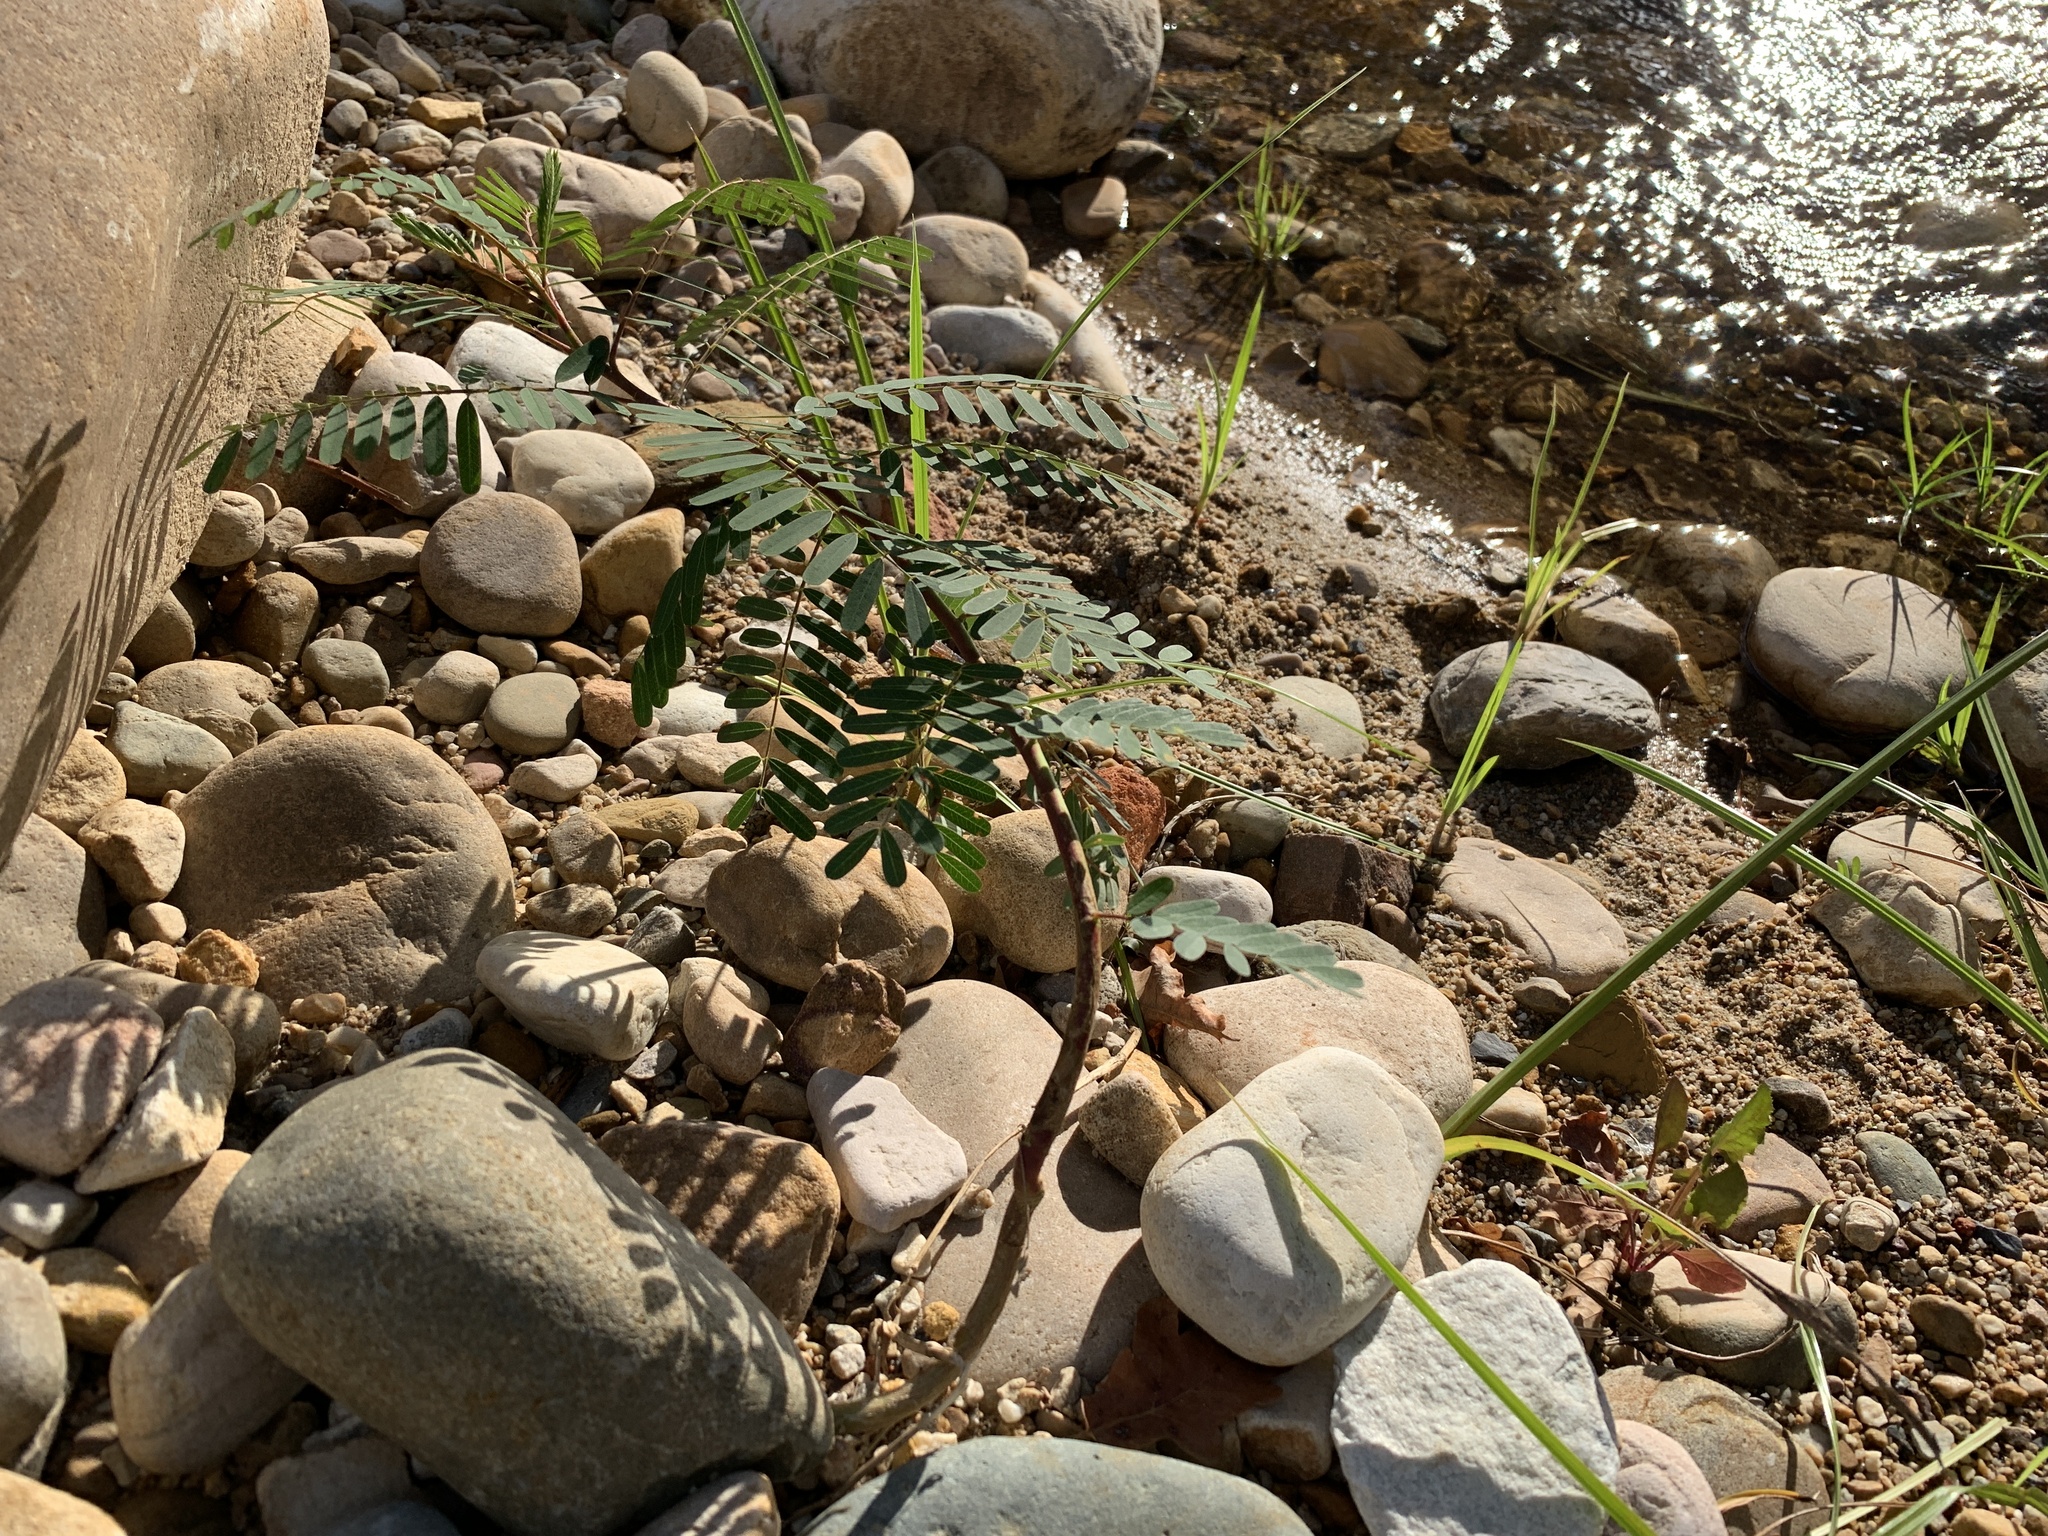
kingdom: Plantae
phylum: Tracheophyta
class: Magnoliopsida
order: Fabales
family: Fabaceae
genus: Sesbania
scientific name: Sesbania punicea
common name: Rattlebox
